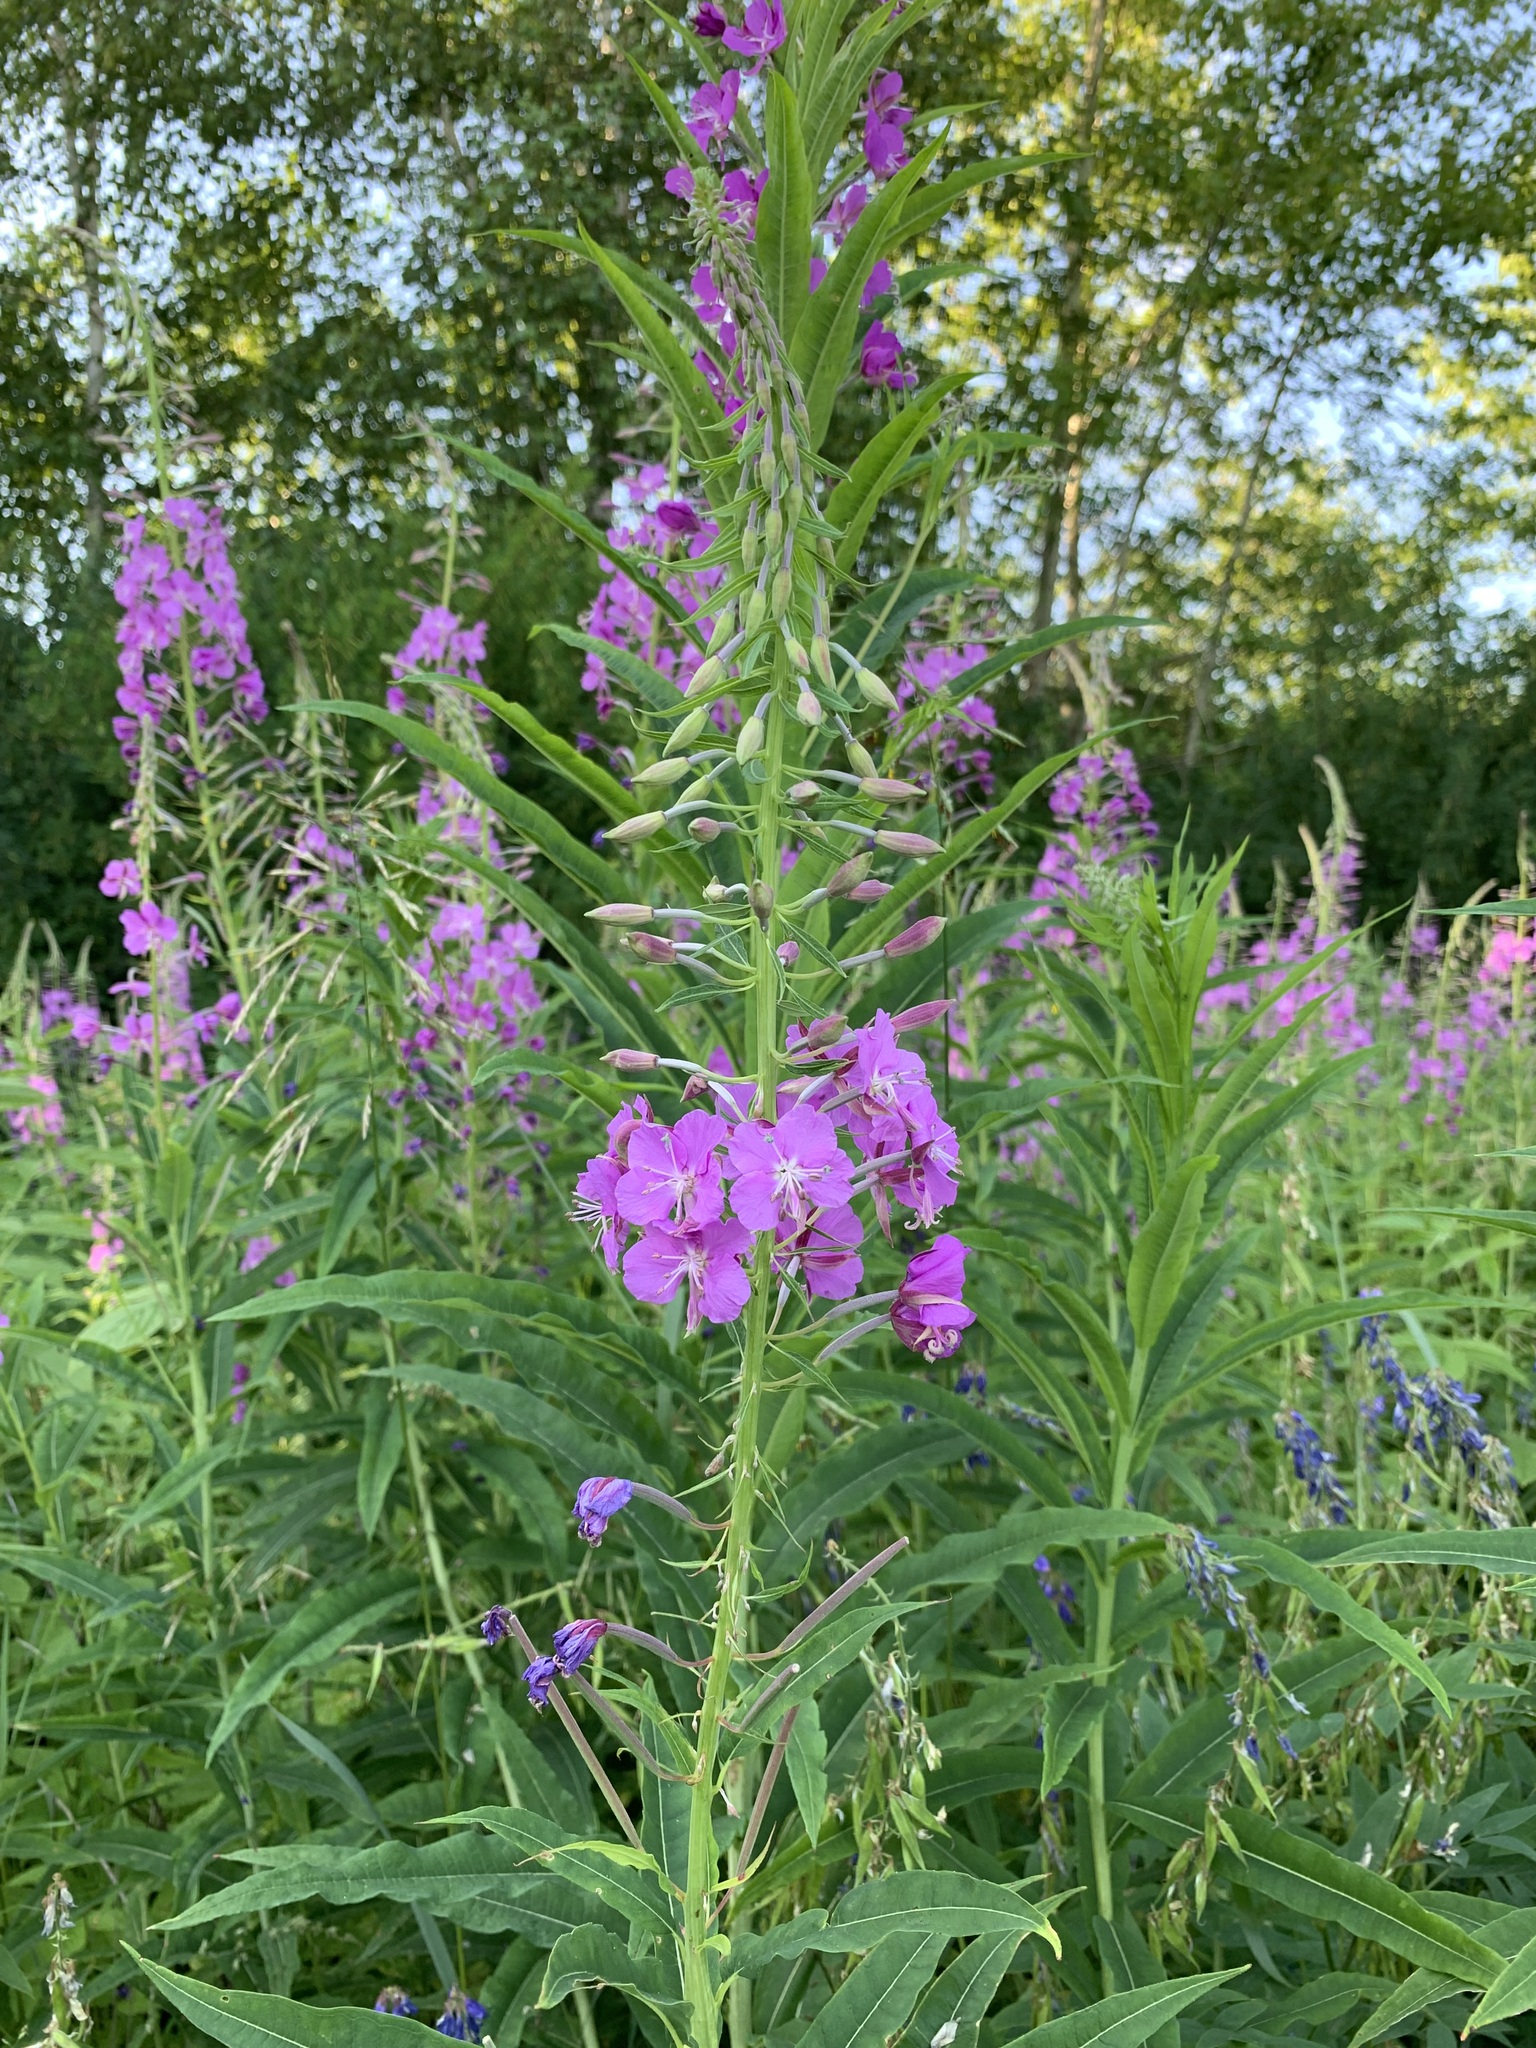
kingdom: Plantae
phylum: Tracheophyta
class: Magnoliopsida
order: Myrtales
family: Onagraceae
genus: Chamaenerion
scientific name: Chamaenerion angustifolium
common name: Fireweed
